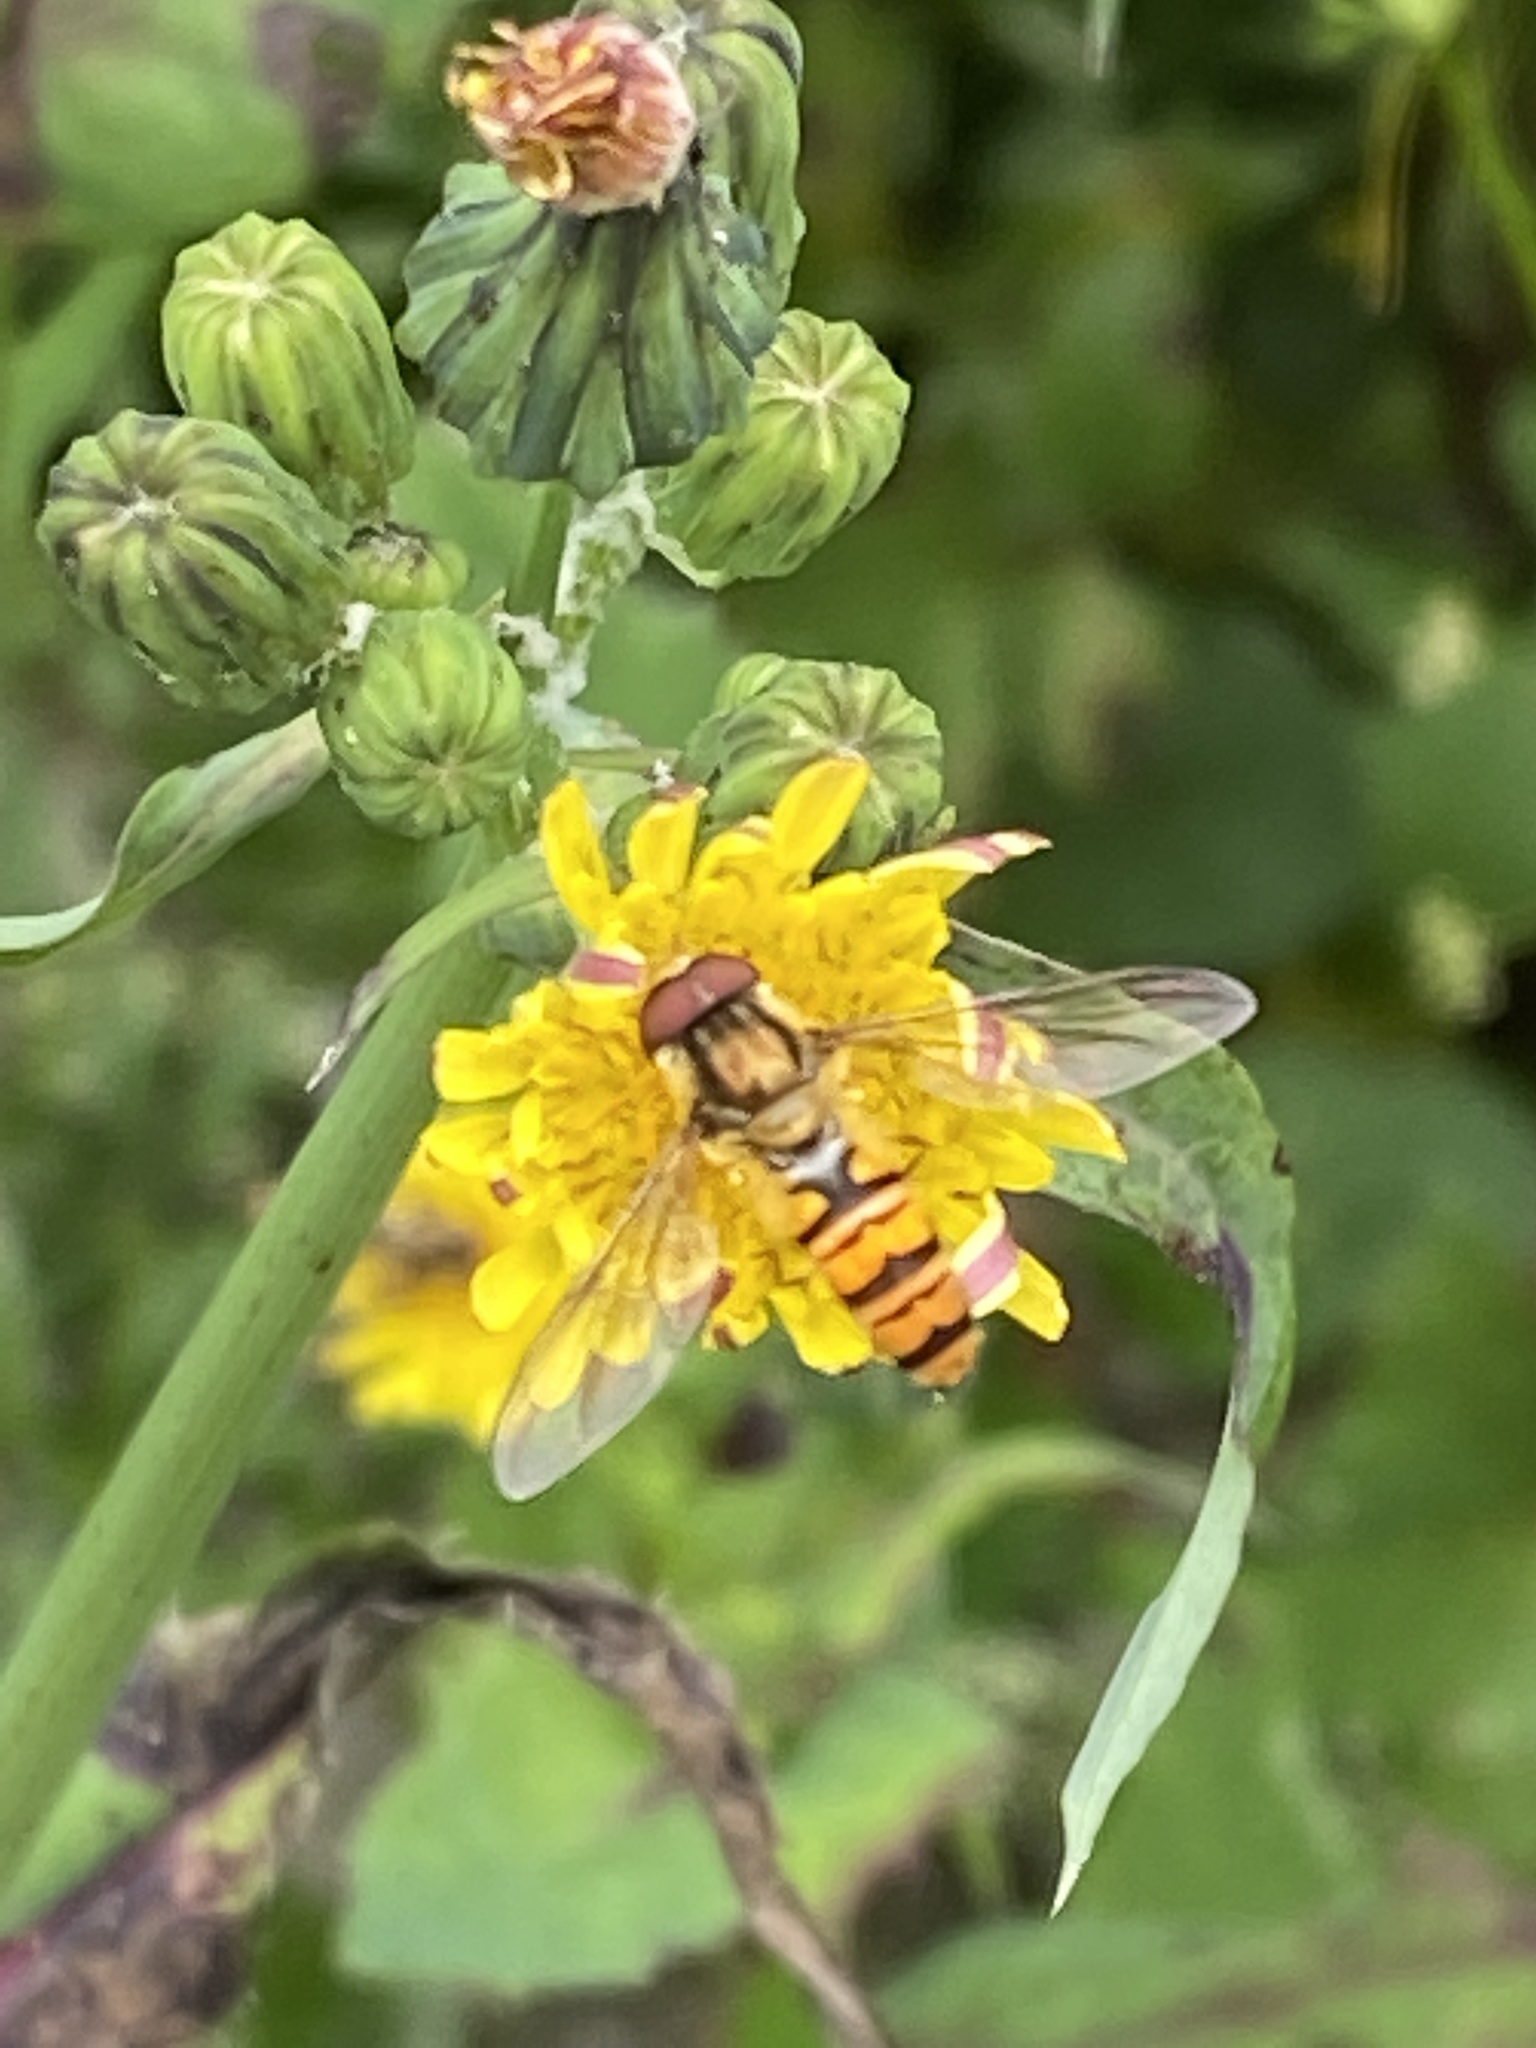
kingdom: Animalia
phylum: Arthropoda
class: Insecta
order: Diptera
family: Syrphidae
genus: Episyrphus
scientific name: Episyrphus balteatus
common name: Marmalade hoverfly
